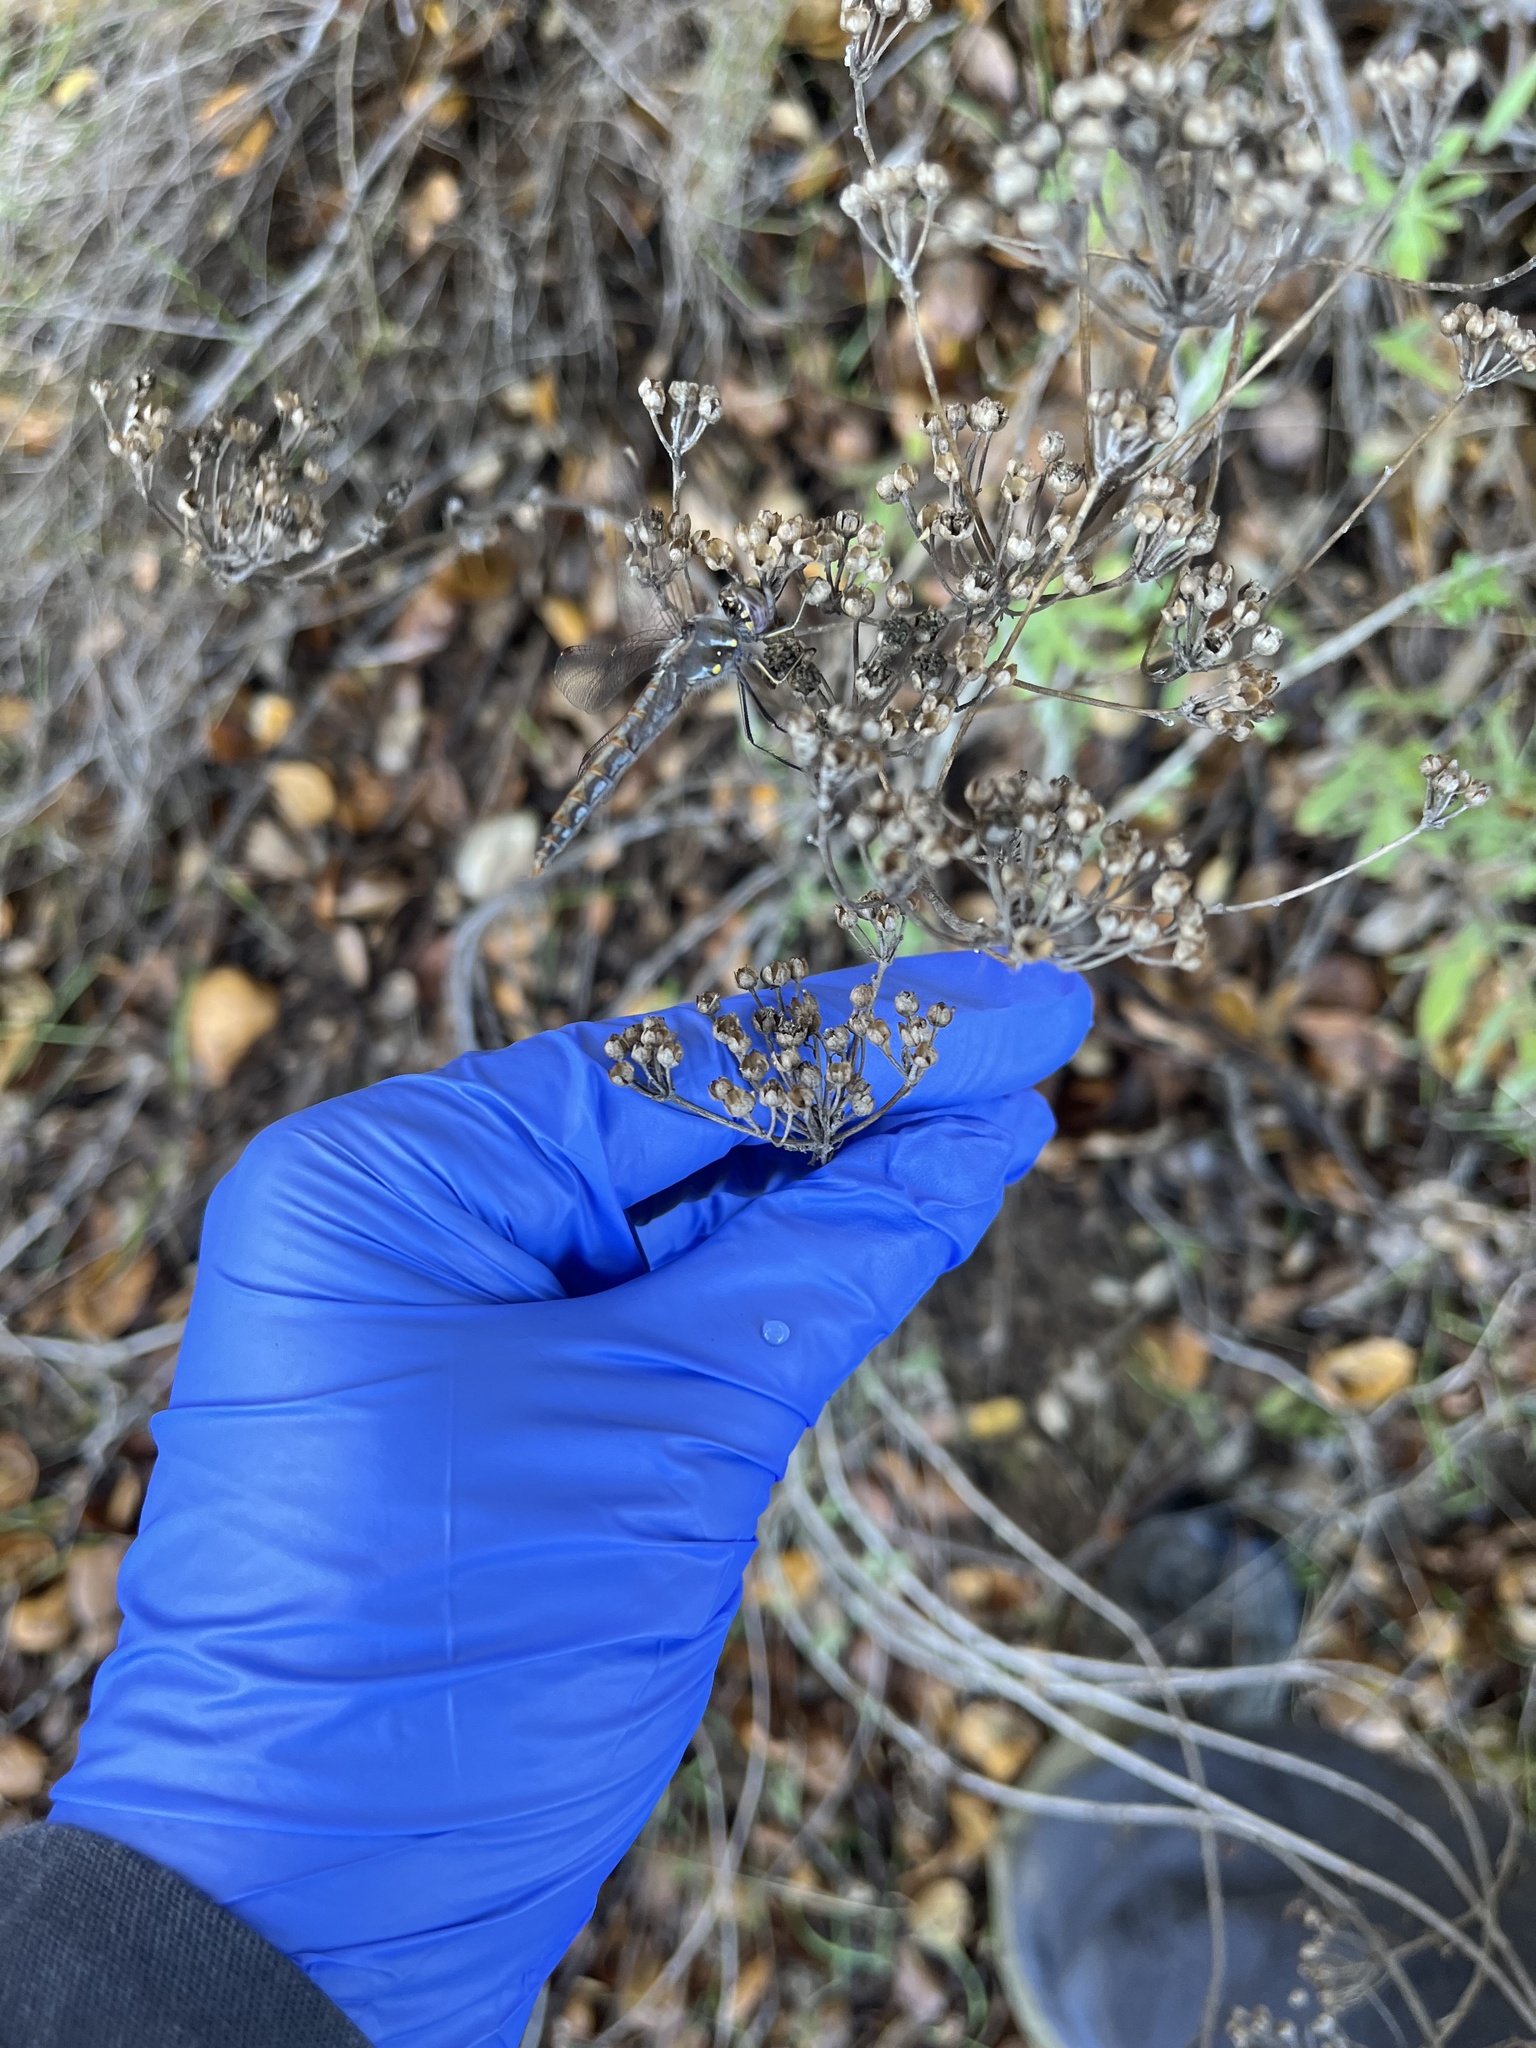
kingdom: Plantae
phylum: Tracheophyta
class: Magnoliopsida
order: Asterales
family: Asteraceae
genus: Eriophyllum
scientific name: Eriophyllum confertiflorum
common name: Golden-yarrow
